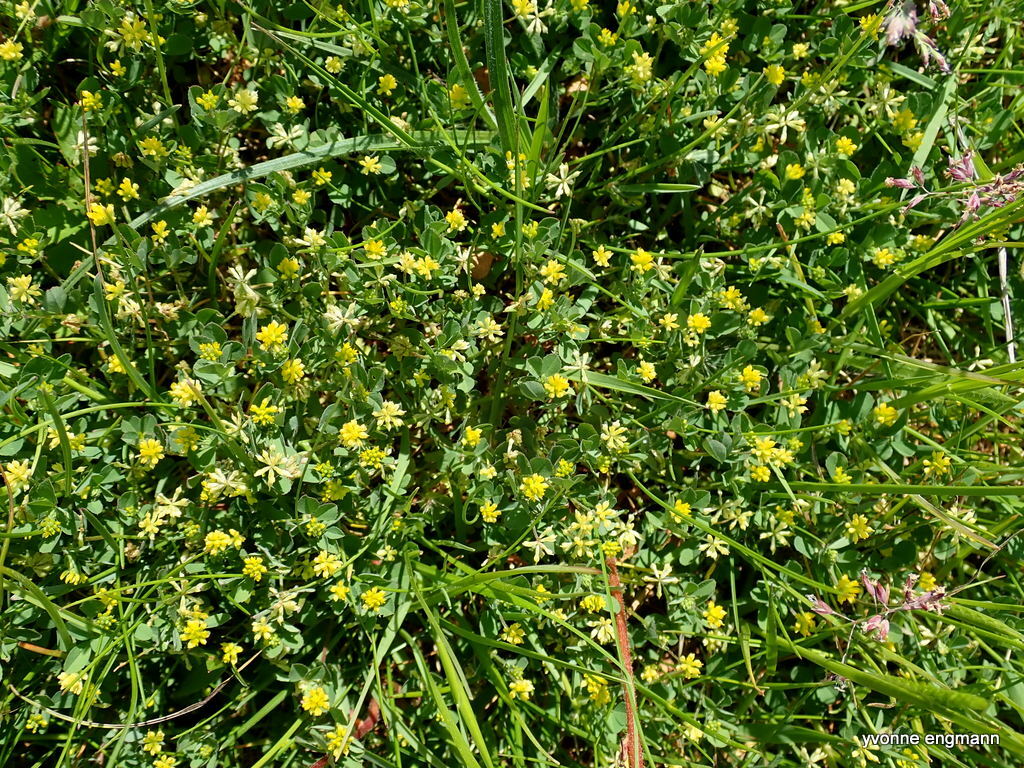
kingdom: Plantae
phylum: Tracheophyta
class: Magnoliopsida
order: Fabales
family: Fabaceae
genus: Trifolium
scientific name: Trifolium dubium
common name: Suckling clover
